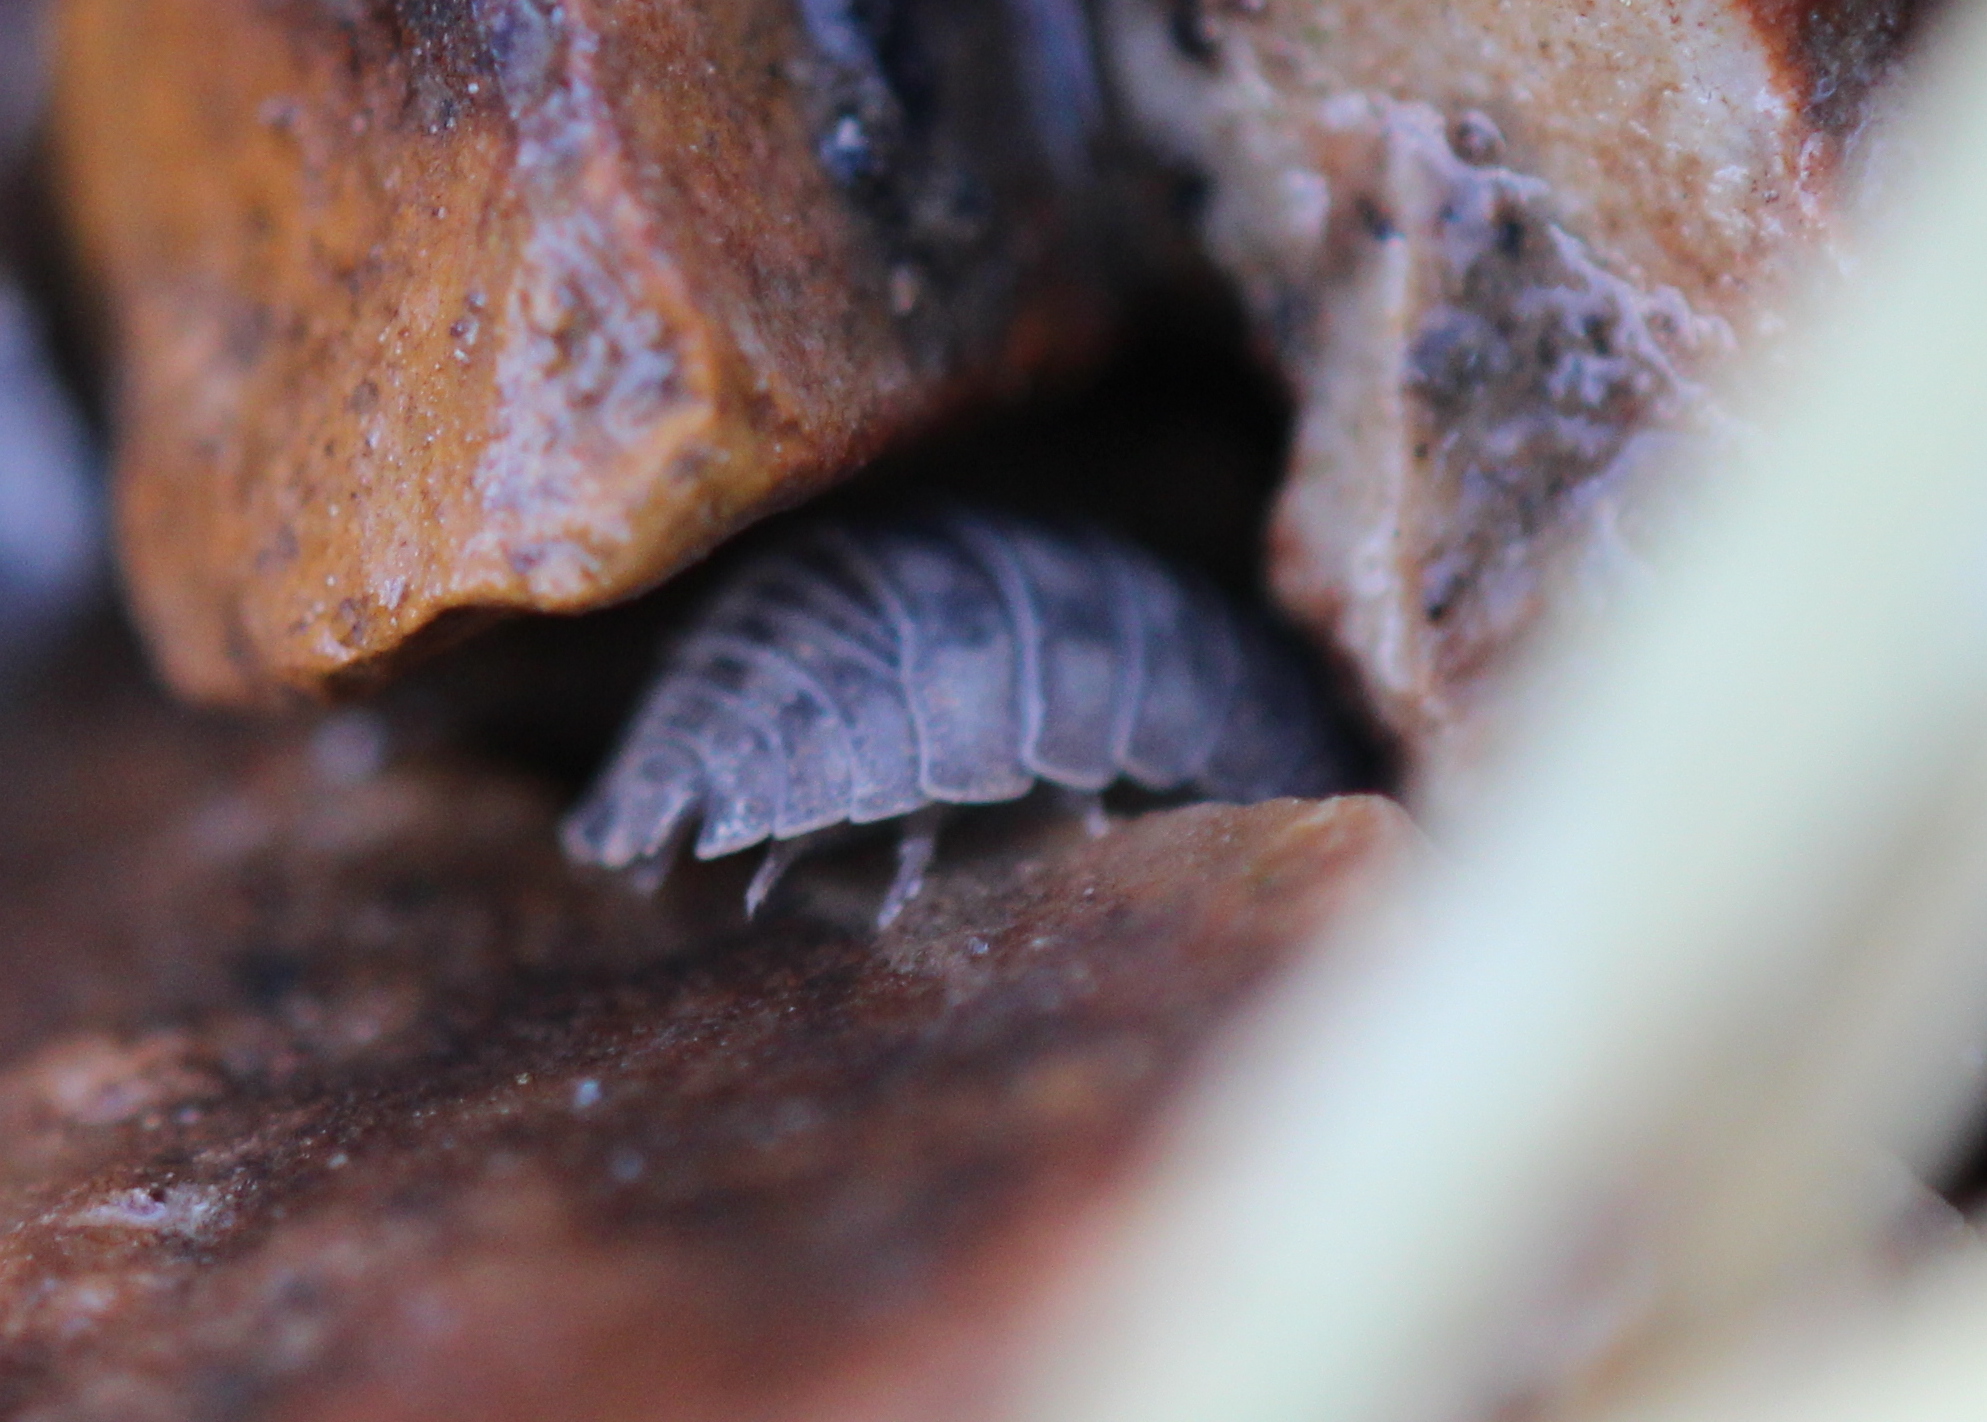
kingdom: Animalia
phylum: Arthropoda
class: Malacostraca
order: Isopoda
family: Armadillidiidae
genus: Armadillidium
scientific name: Armadillidium nasatum
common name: Isopod
